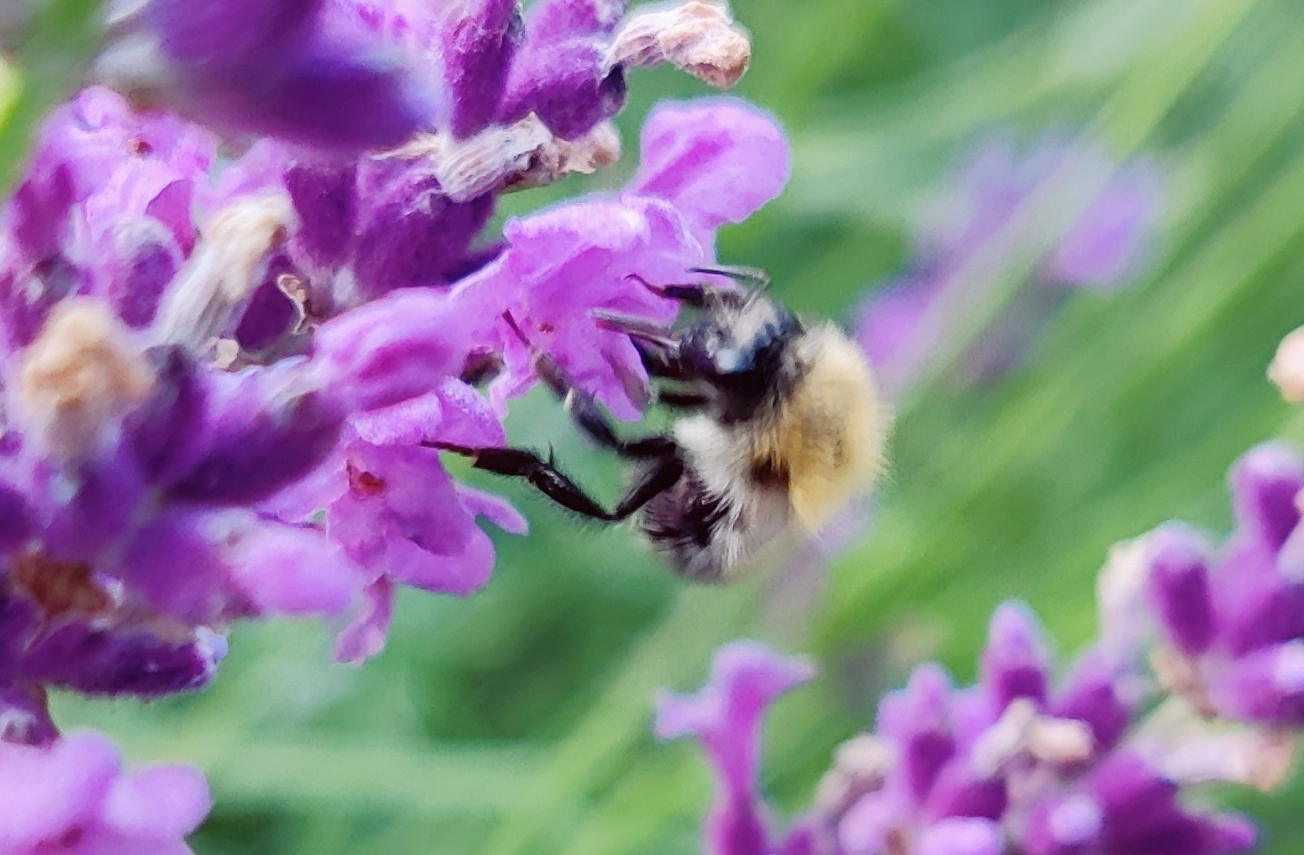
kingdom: Animalia
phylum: Arthropoda
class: Insecta
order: Hymenoptera
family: Apidae
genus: Bombus
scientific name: Bombus pascuorum
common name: Common carder bee
